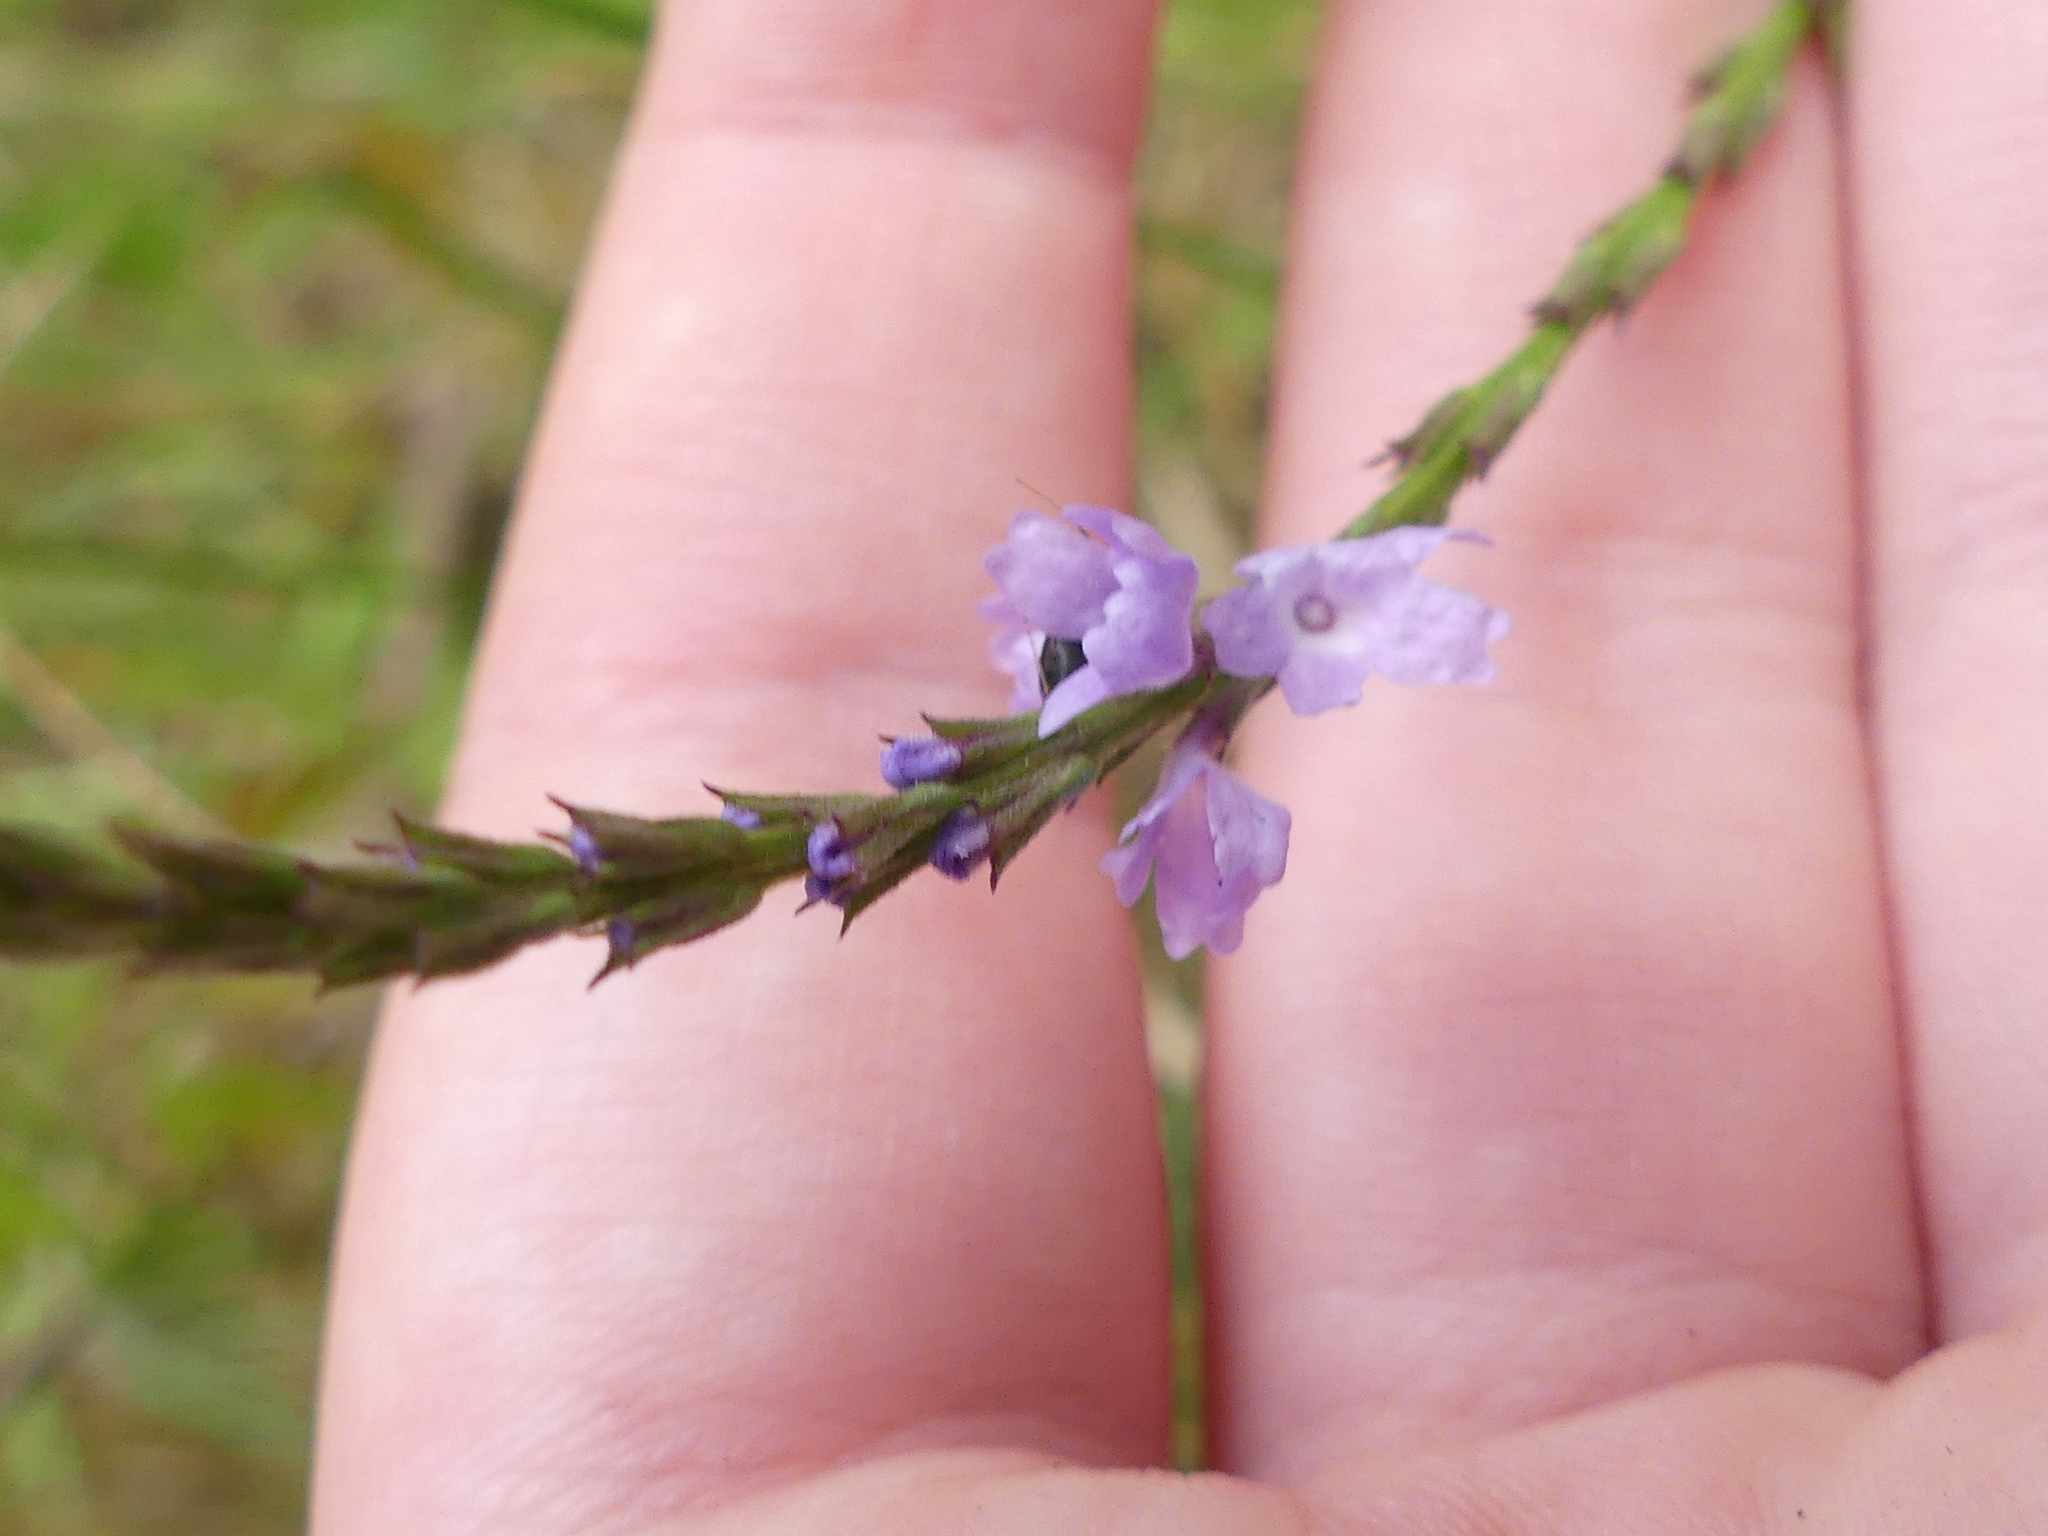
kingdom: Plantae
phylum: Tracheophyta
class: Magnoliopsida
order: Lamiales
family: Verbenaceae
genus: Verbena
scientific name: Verbena halei
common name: Texas vervain
